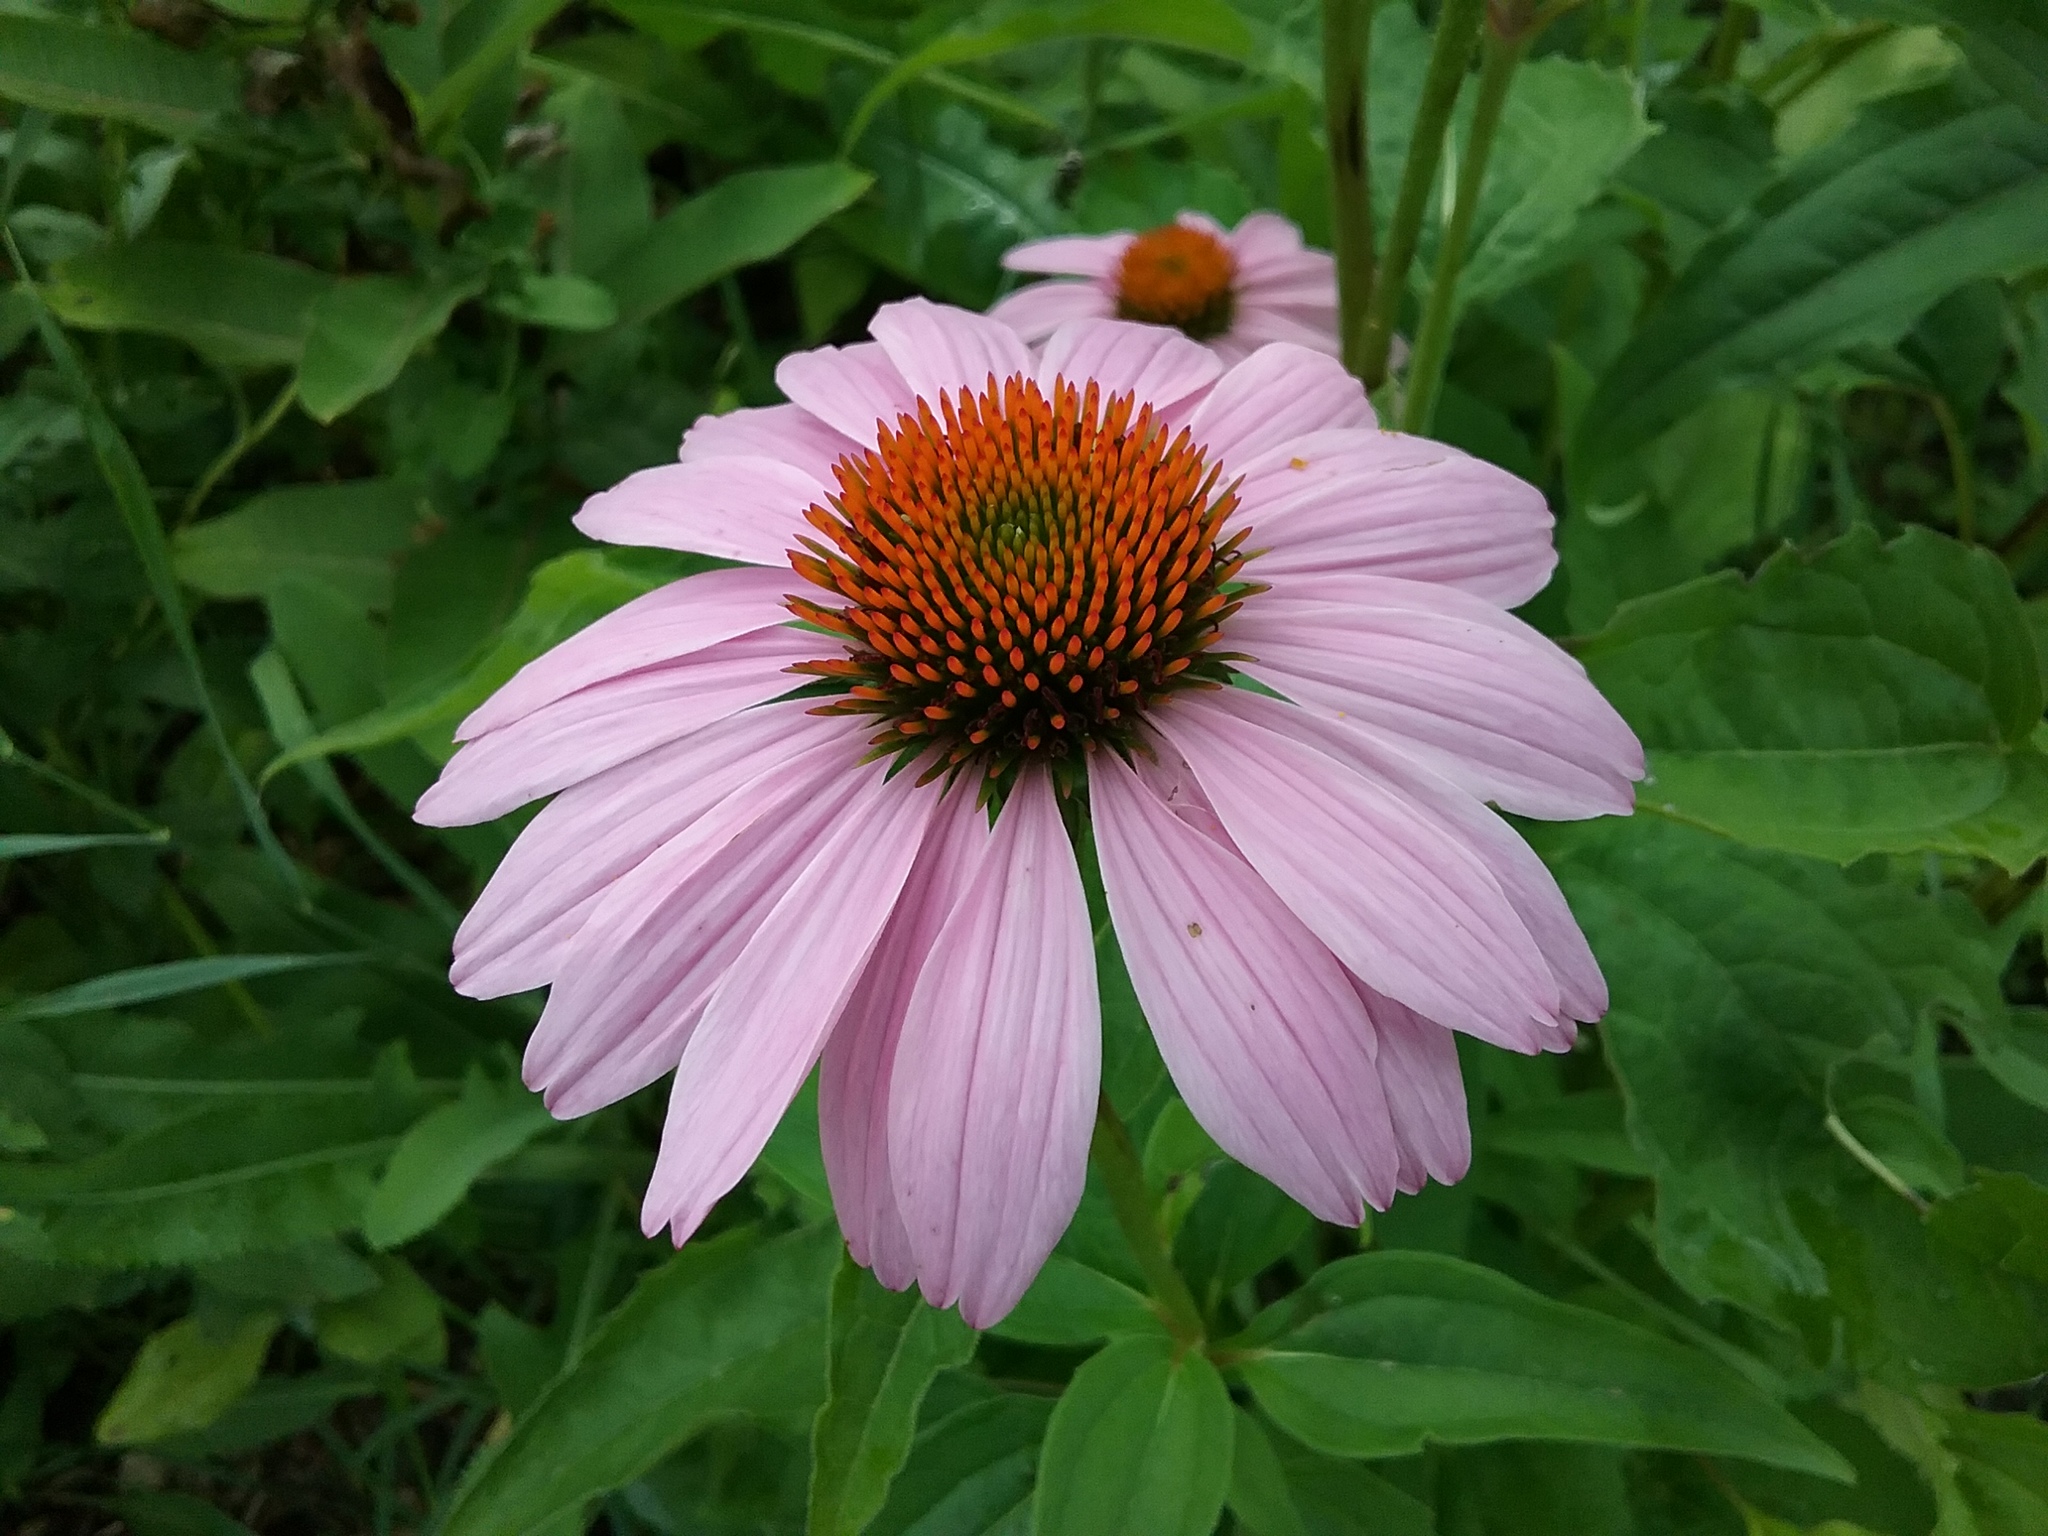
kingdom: Plantae
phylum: Tracheophyta
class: Magnoliopsida
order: Asterales
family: Asteraceae
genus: Echinacea
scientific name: Echinacea purpurea
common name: Broad-leaved purple coneflower
